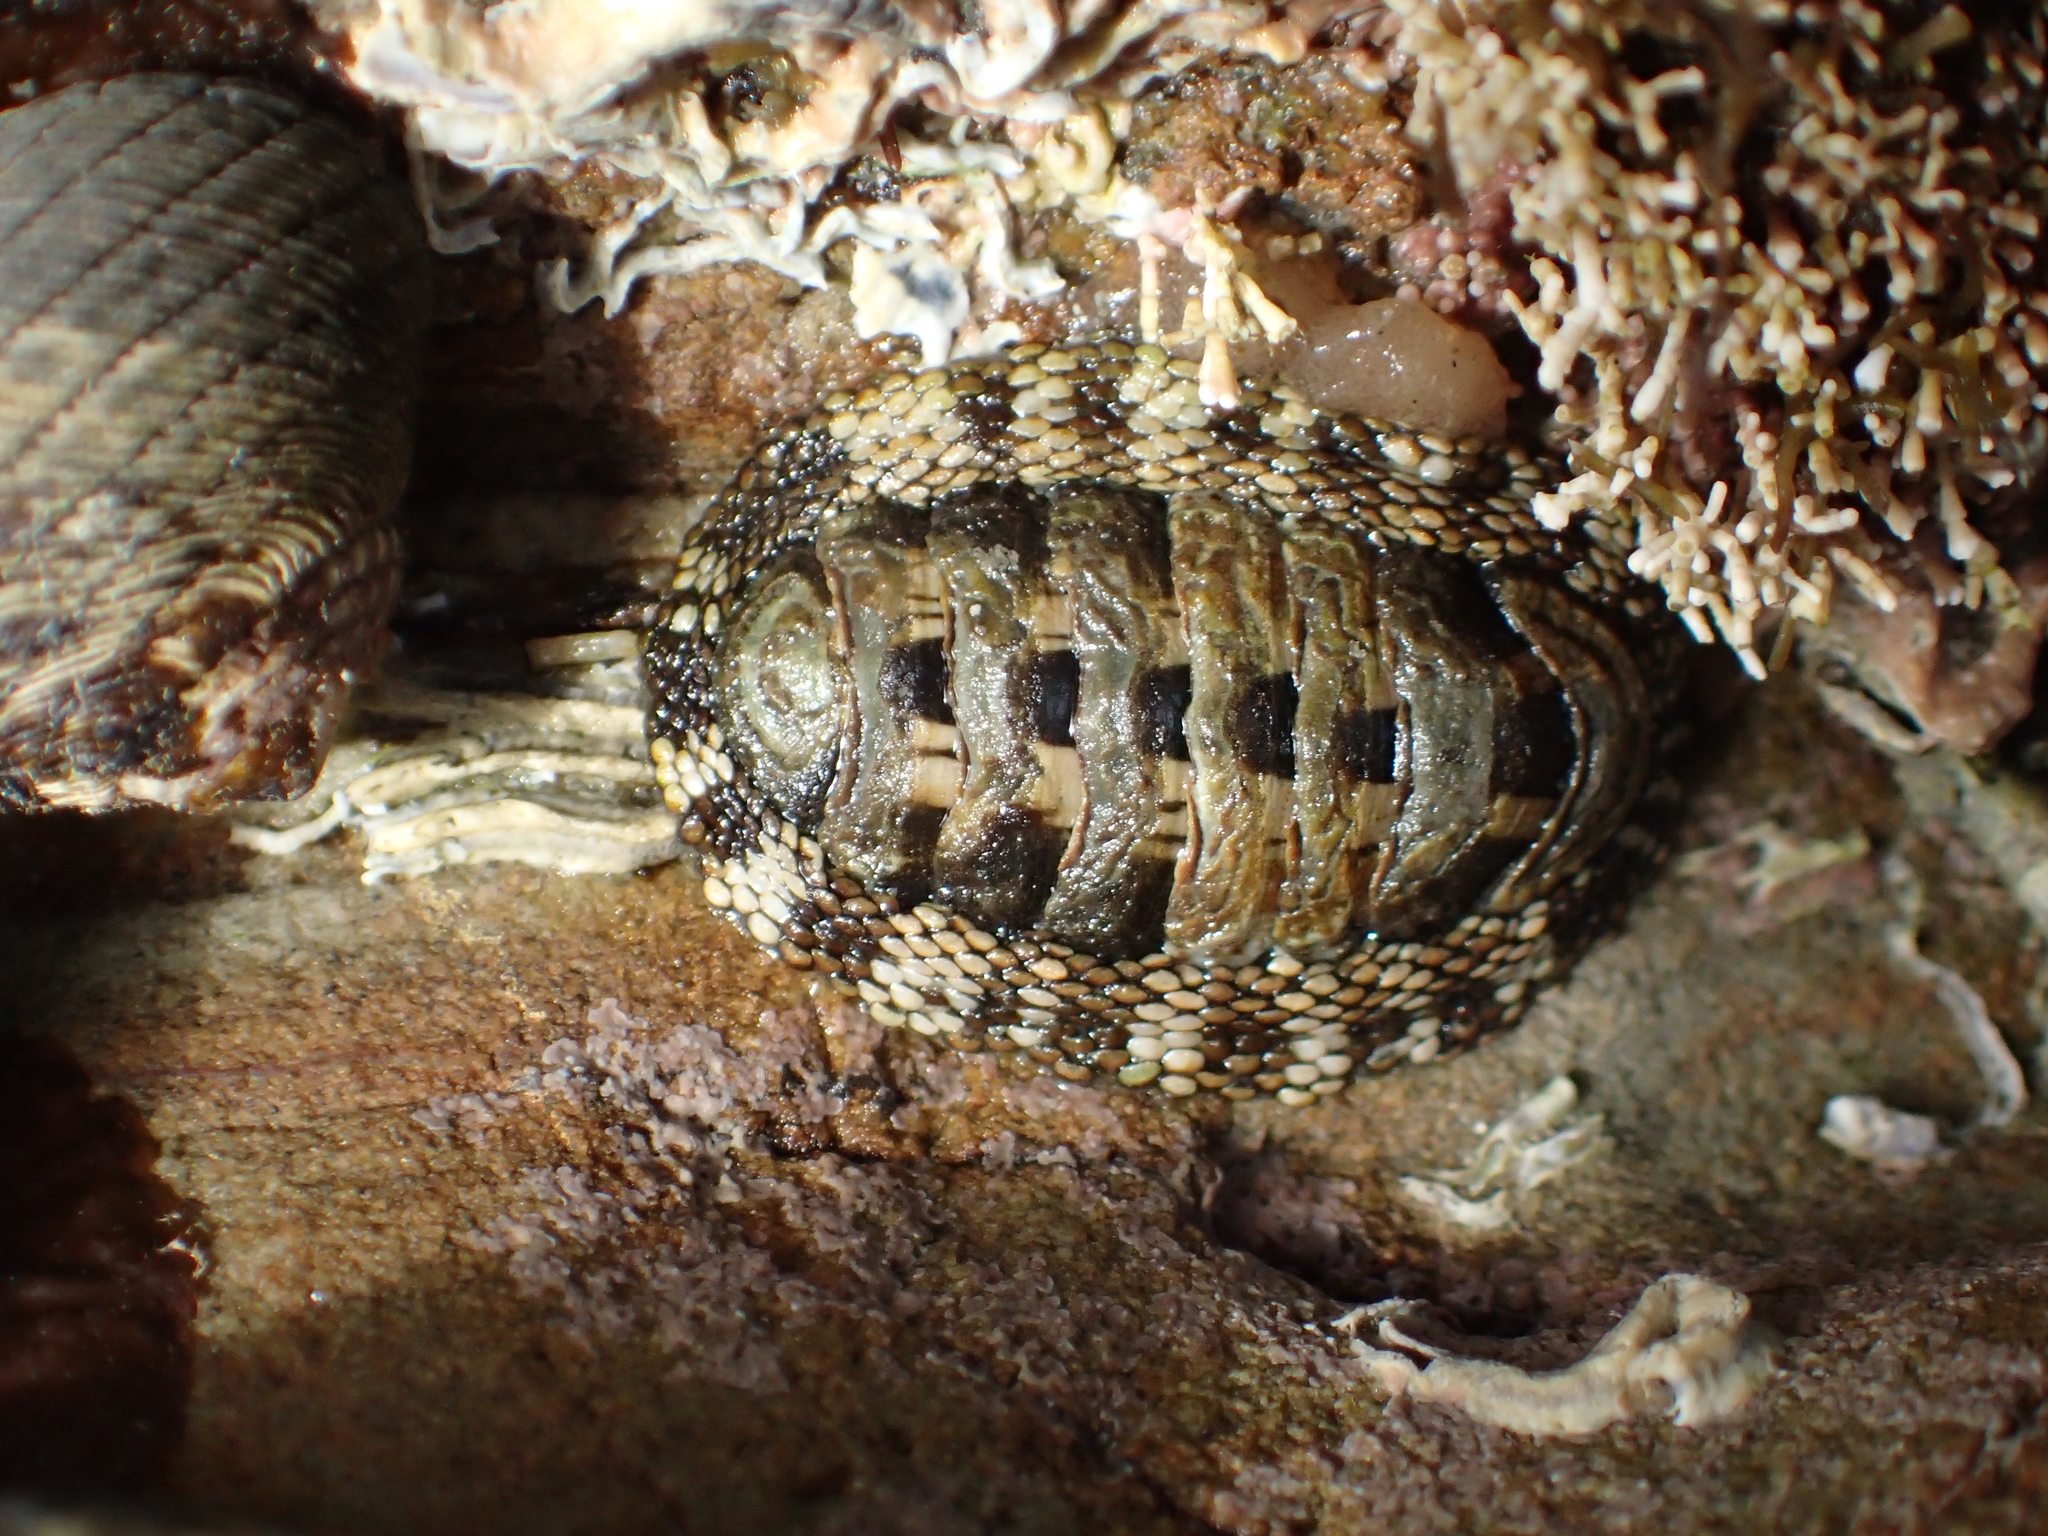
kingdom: Animalia
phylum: Mollusca
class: Polyplacophora
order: Chitonida
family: Chitonidae
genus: Sypharochiton
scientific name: Sypharochiton pelliserpentis
